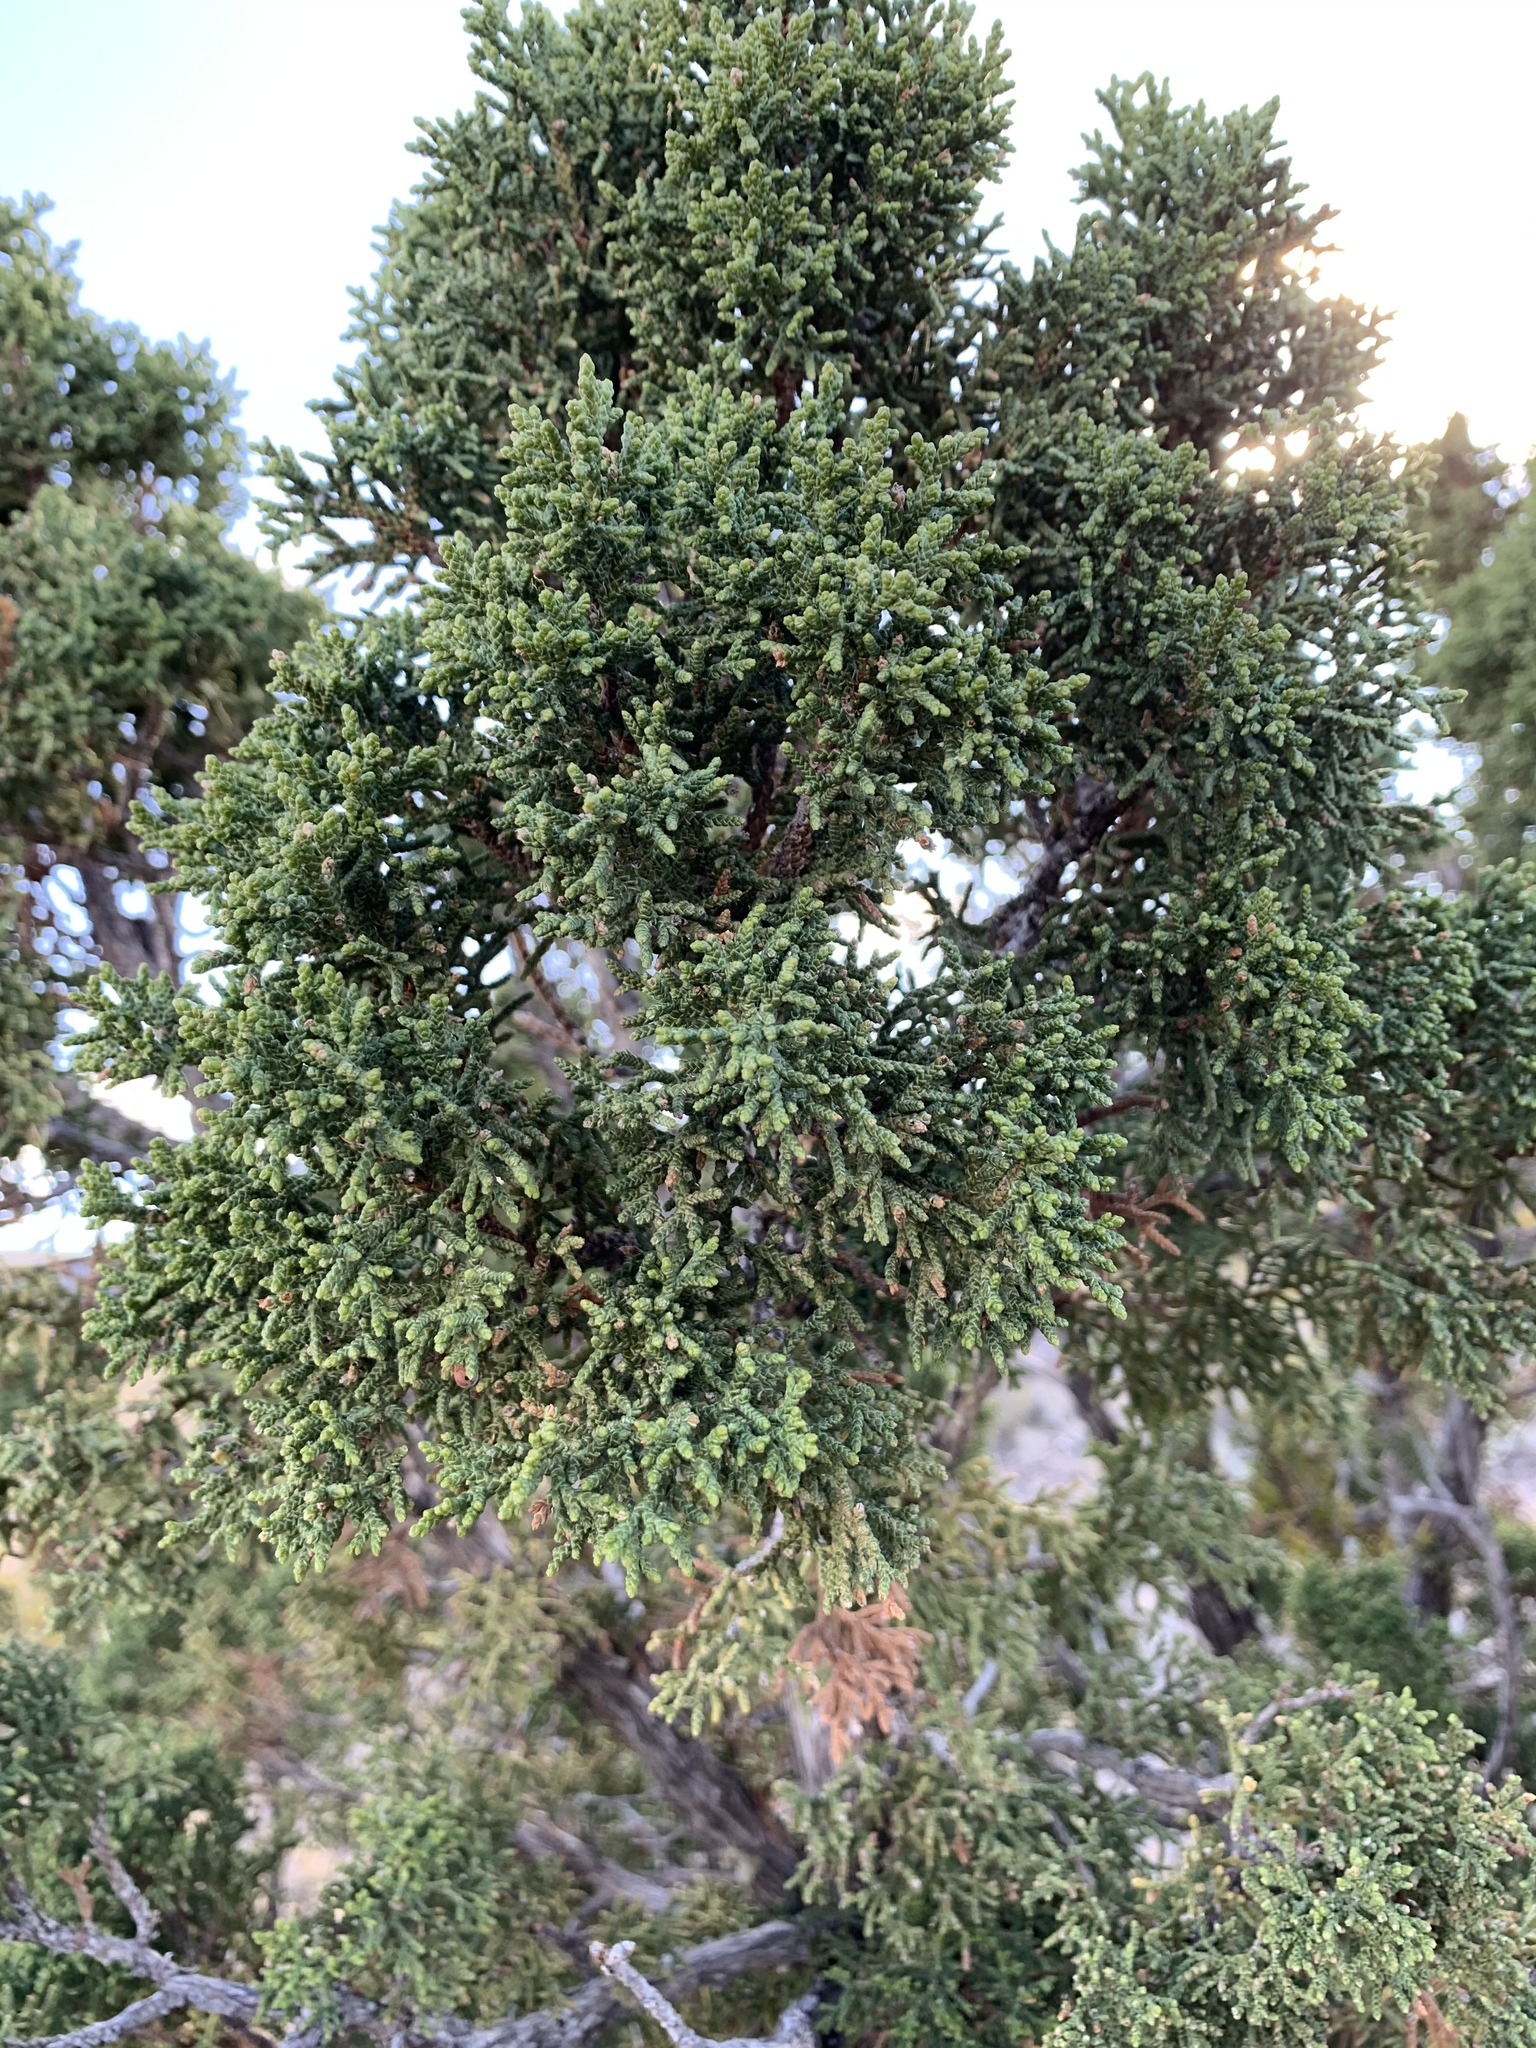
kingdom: Plantae
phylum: Tracheophyta
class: Pinopsida
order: Pinales
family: Cupressaceae
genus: Juniperus
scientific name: Juniperus monosperma
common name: One-seed juniper
